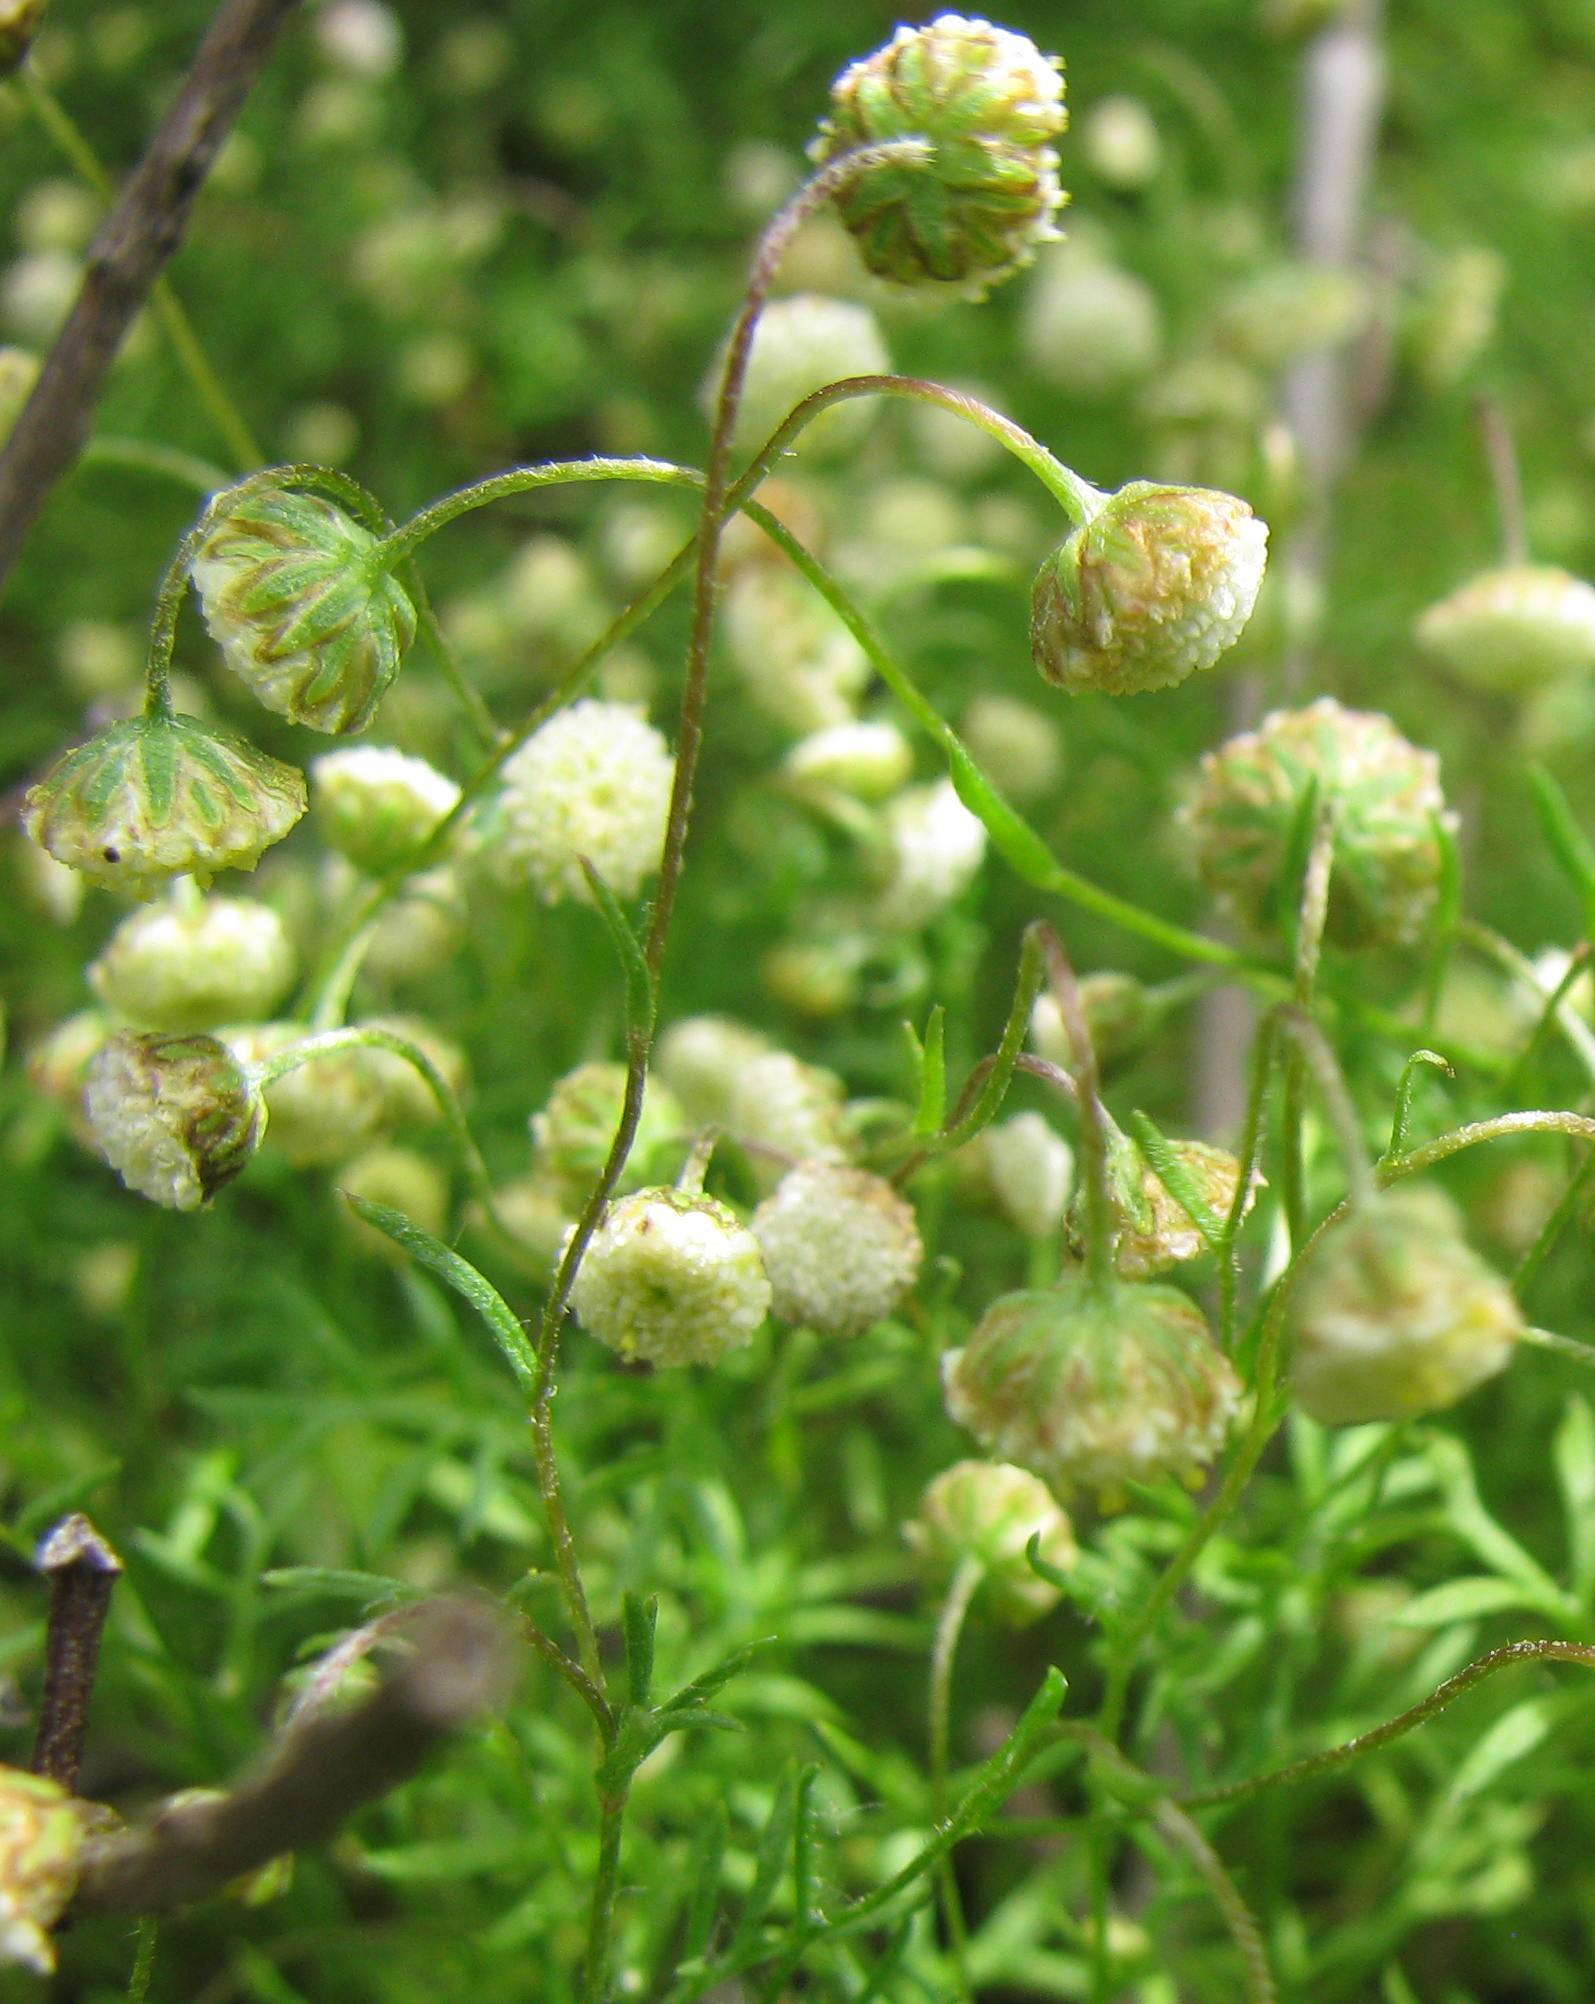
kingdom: Plantae
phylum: Tracheophyta
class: Magnoliopsida
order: Asterales
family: Asteraceae
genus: Cotula
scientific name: Cotula laxa
